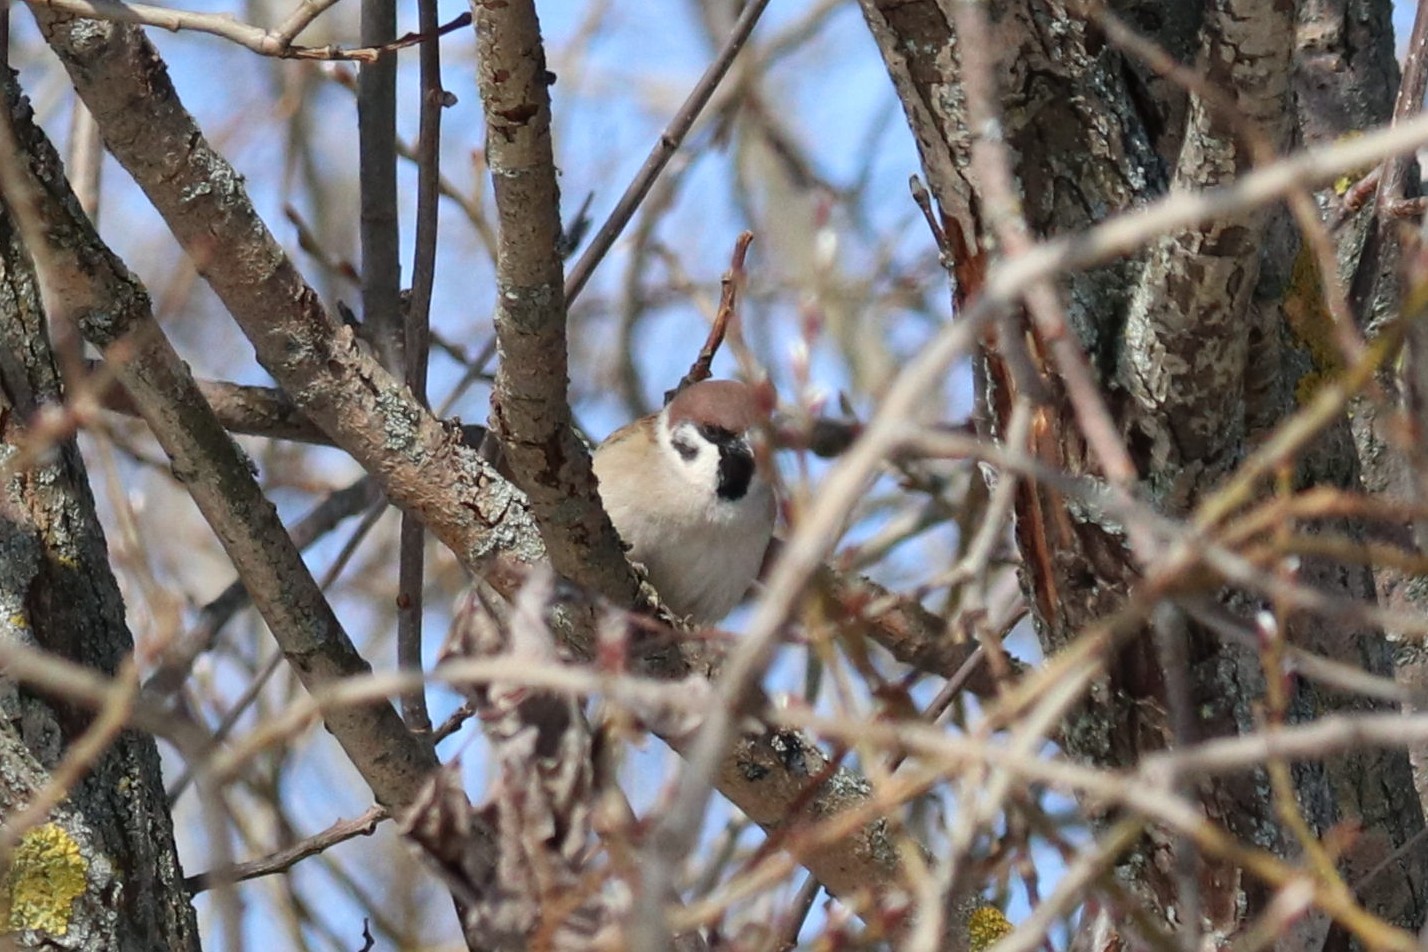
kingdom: Animalia
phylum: Chordata
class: Aves
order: Passeriformes
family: Passeridae
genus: Passer
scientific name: Passer montanus
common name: Eurasian tree sparrow
